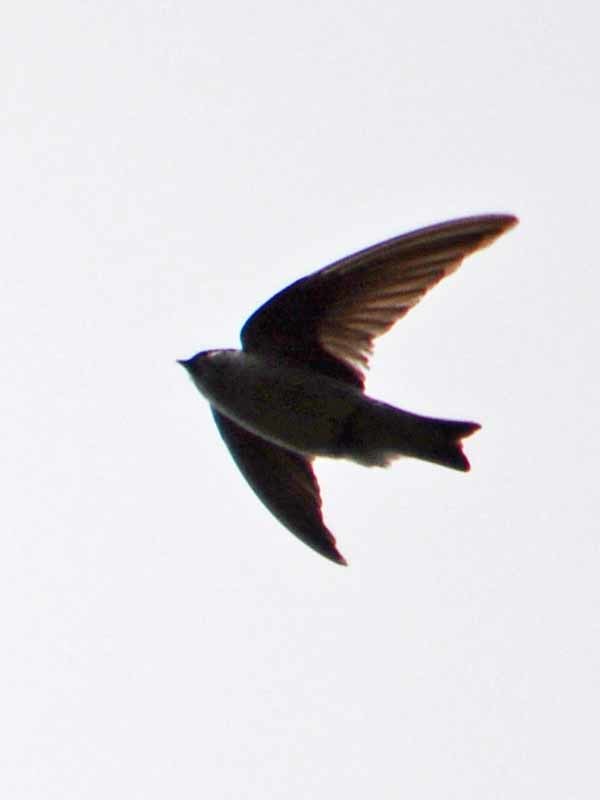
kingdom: Animalia
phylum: Chordata
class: Aves
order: Passeriformes
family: Hirundinidae
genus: Petrochelidon
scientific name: Petrochelidon pyrrhonota
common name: American cliff swallow
